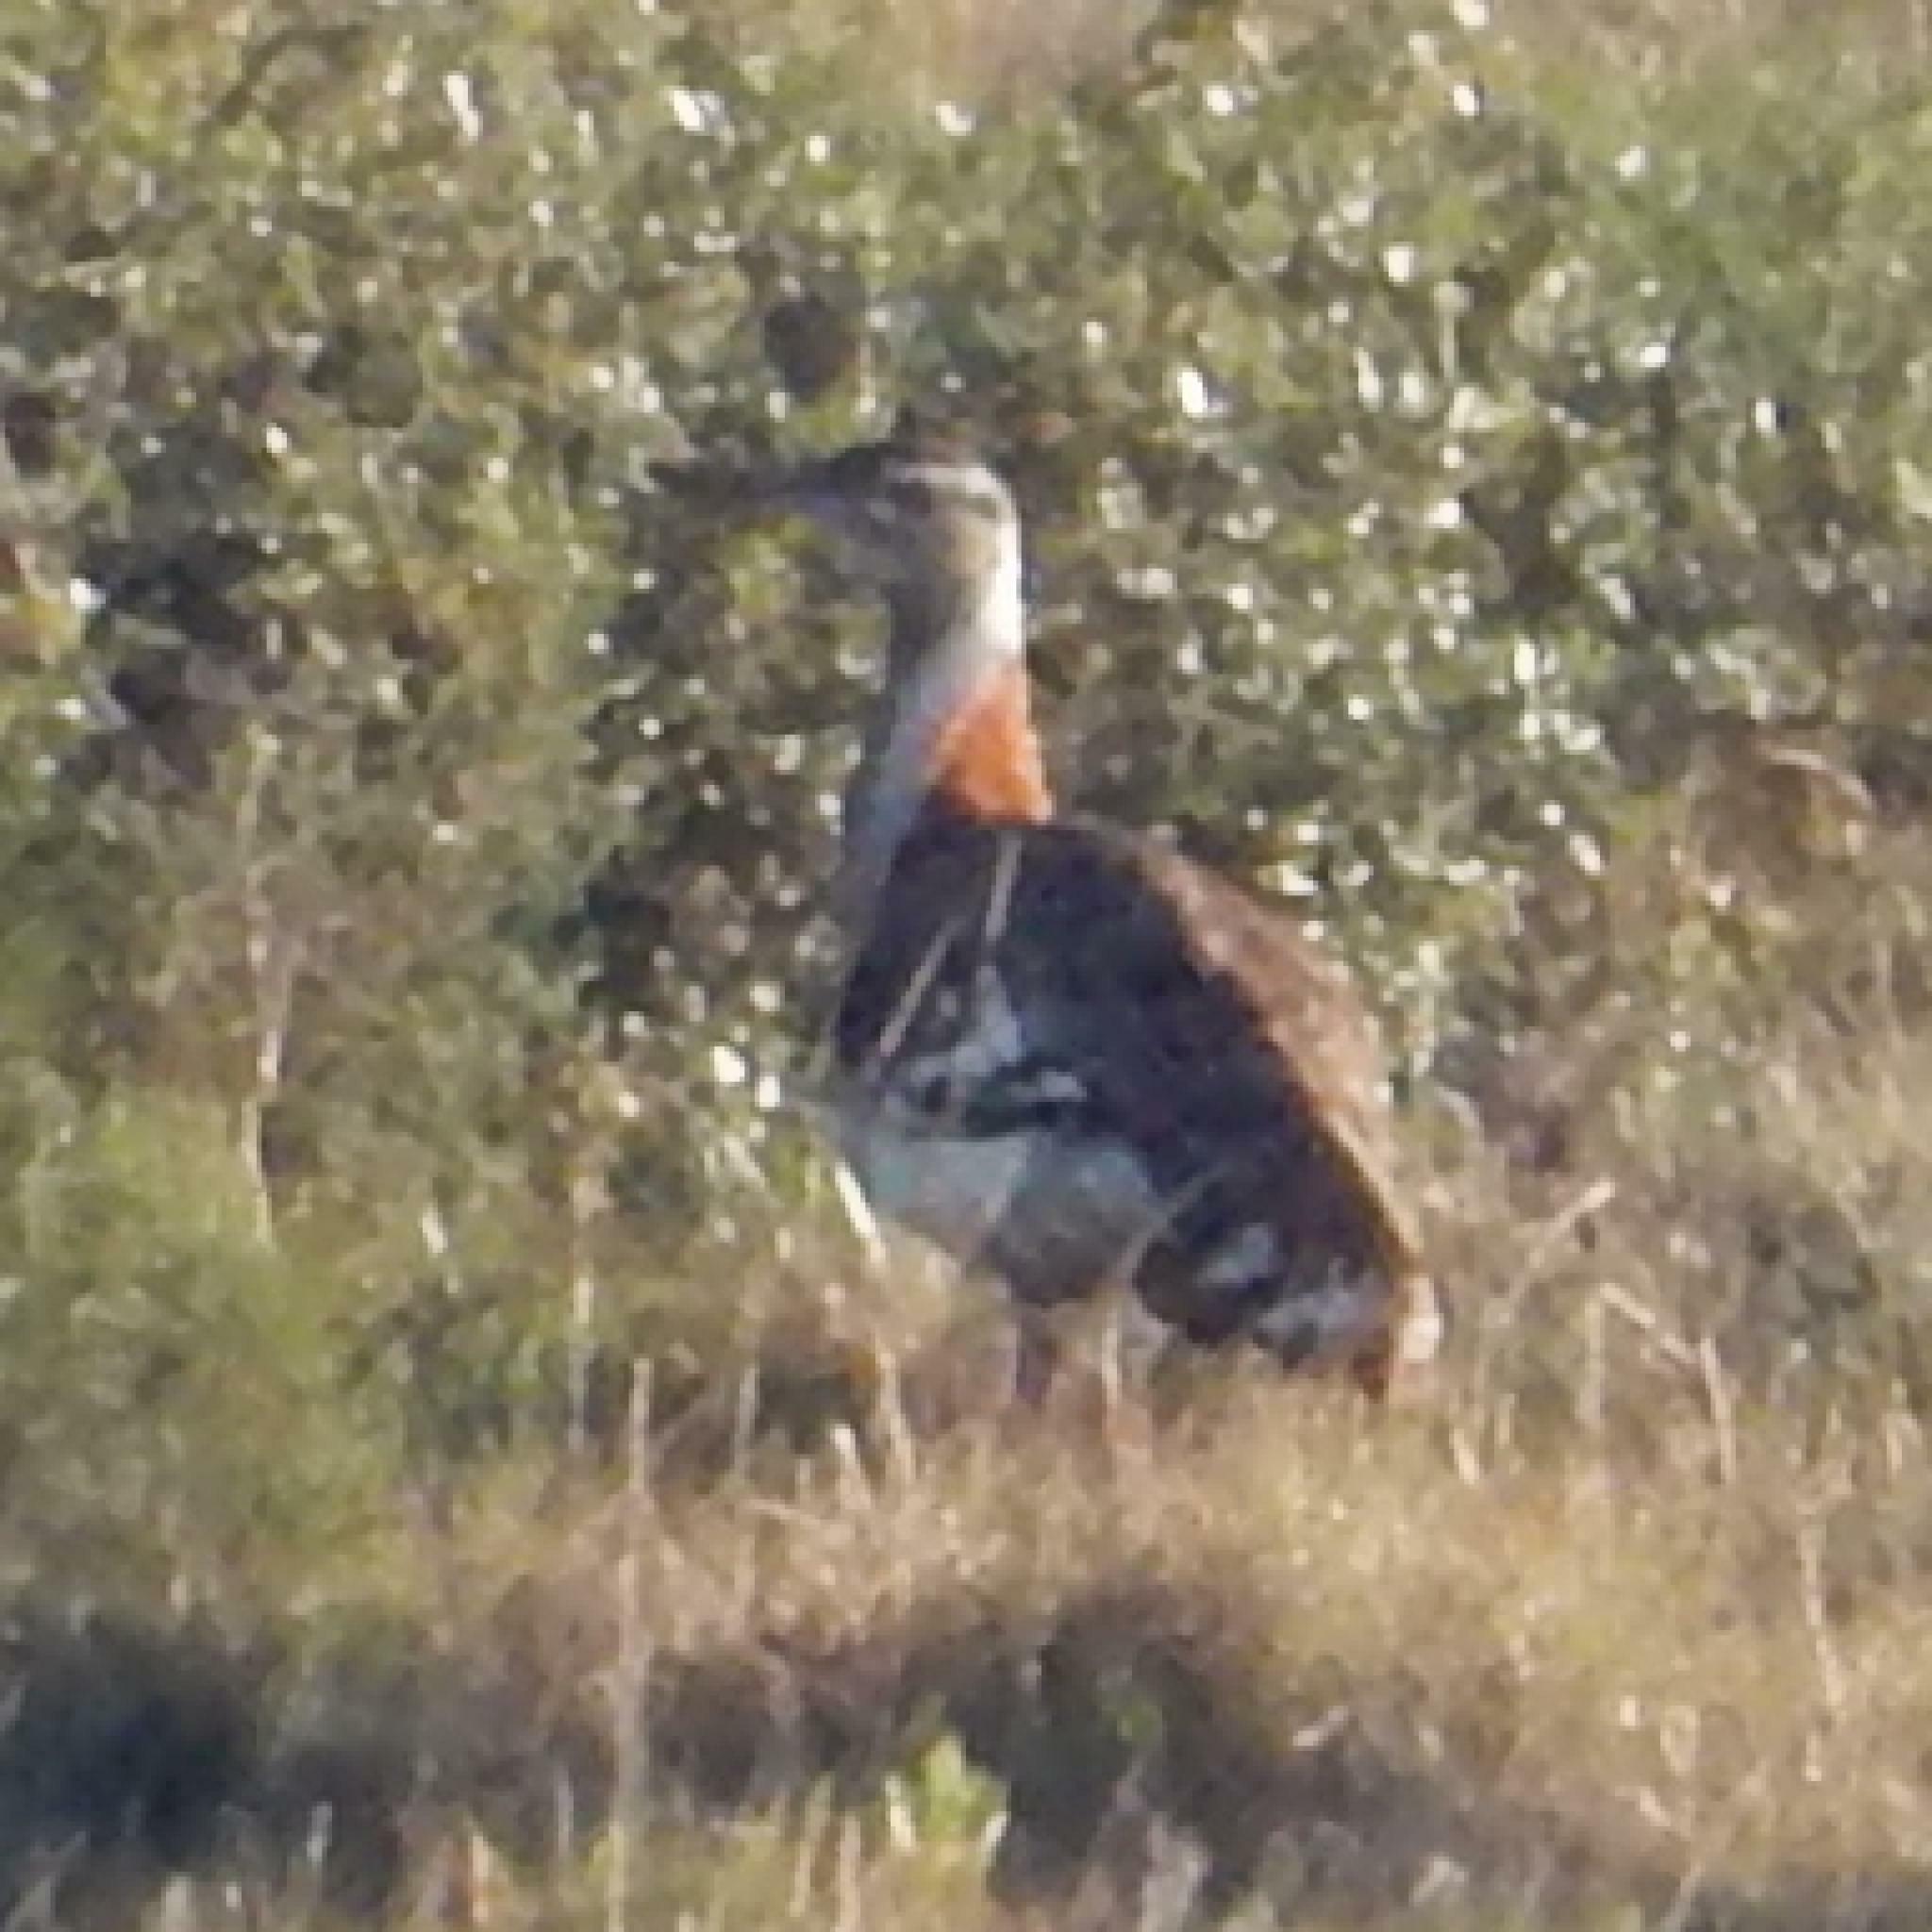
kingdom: Animalia
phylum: Chordata
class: Aves
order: Otidiformes
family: Otididae
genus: Neotis
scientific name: Neotis denhami
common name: Denham's bustard
